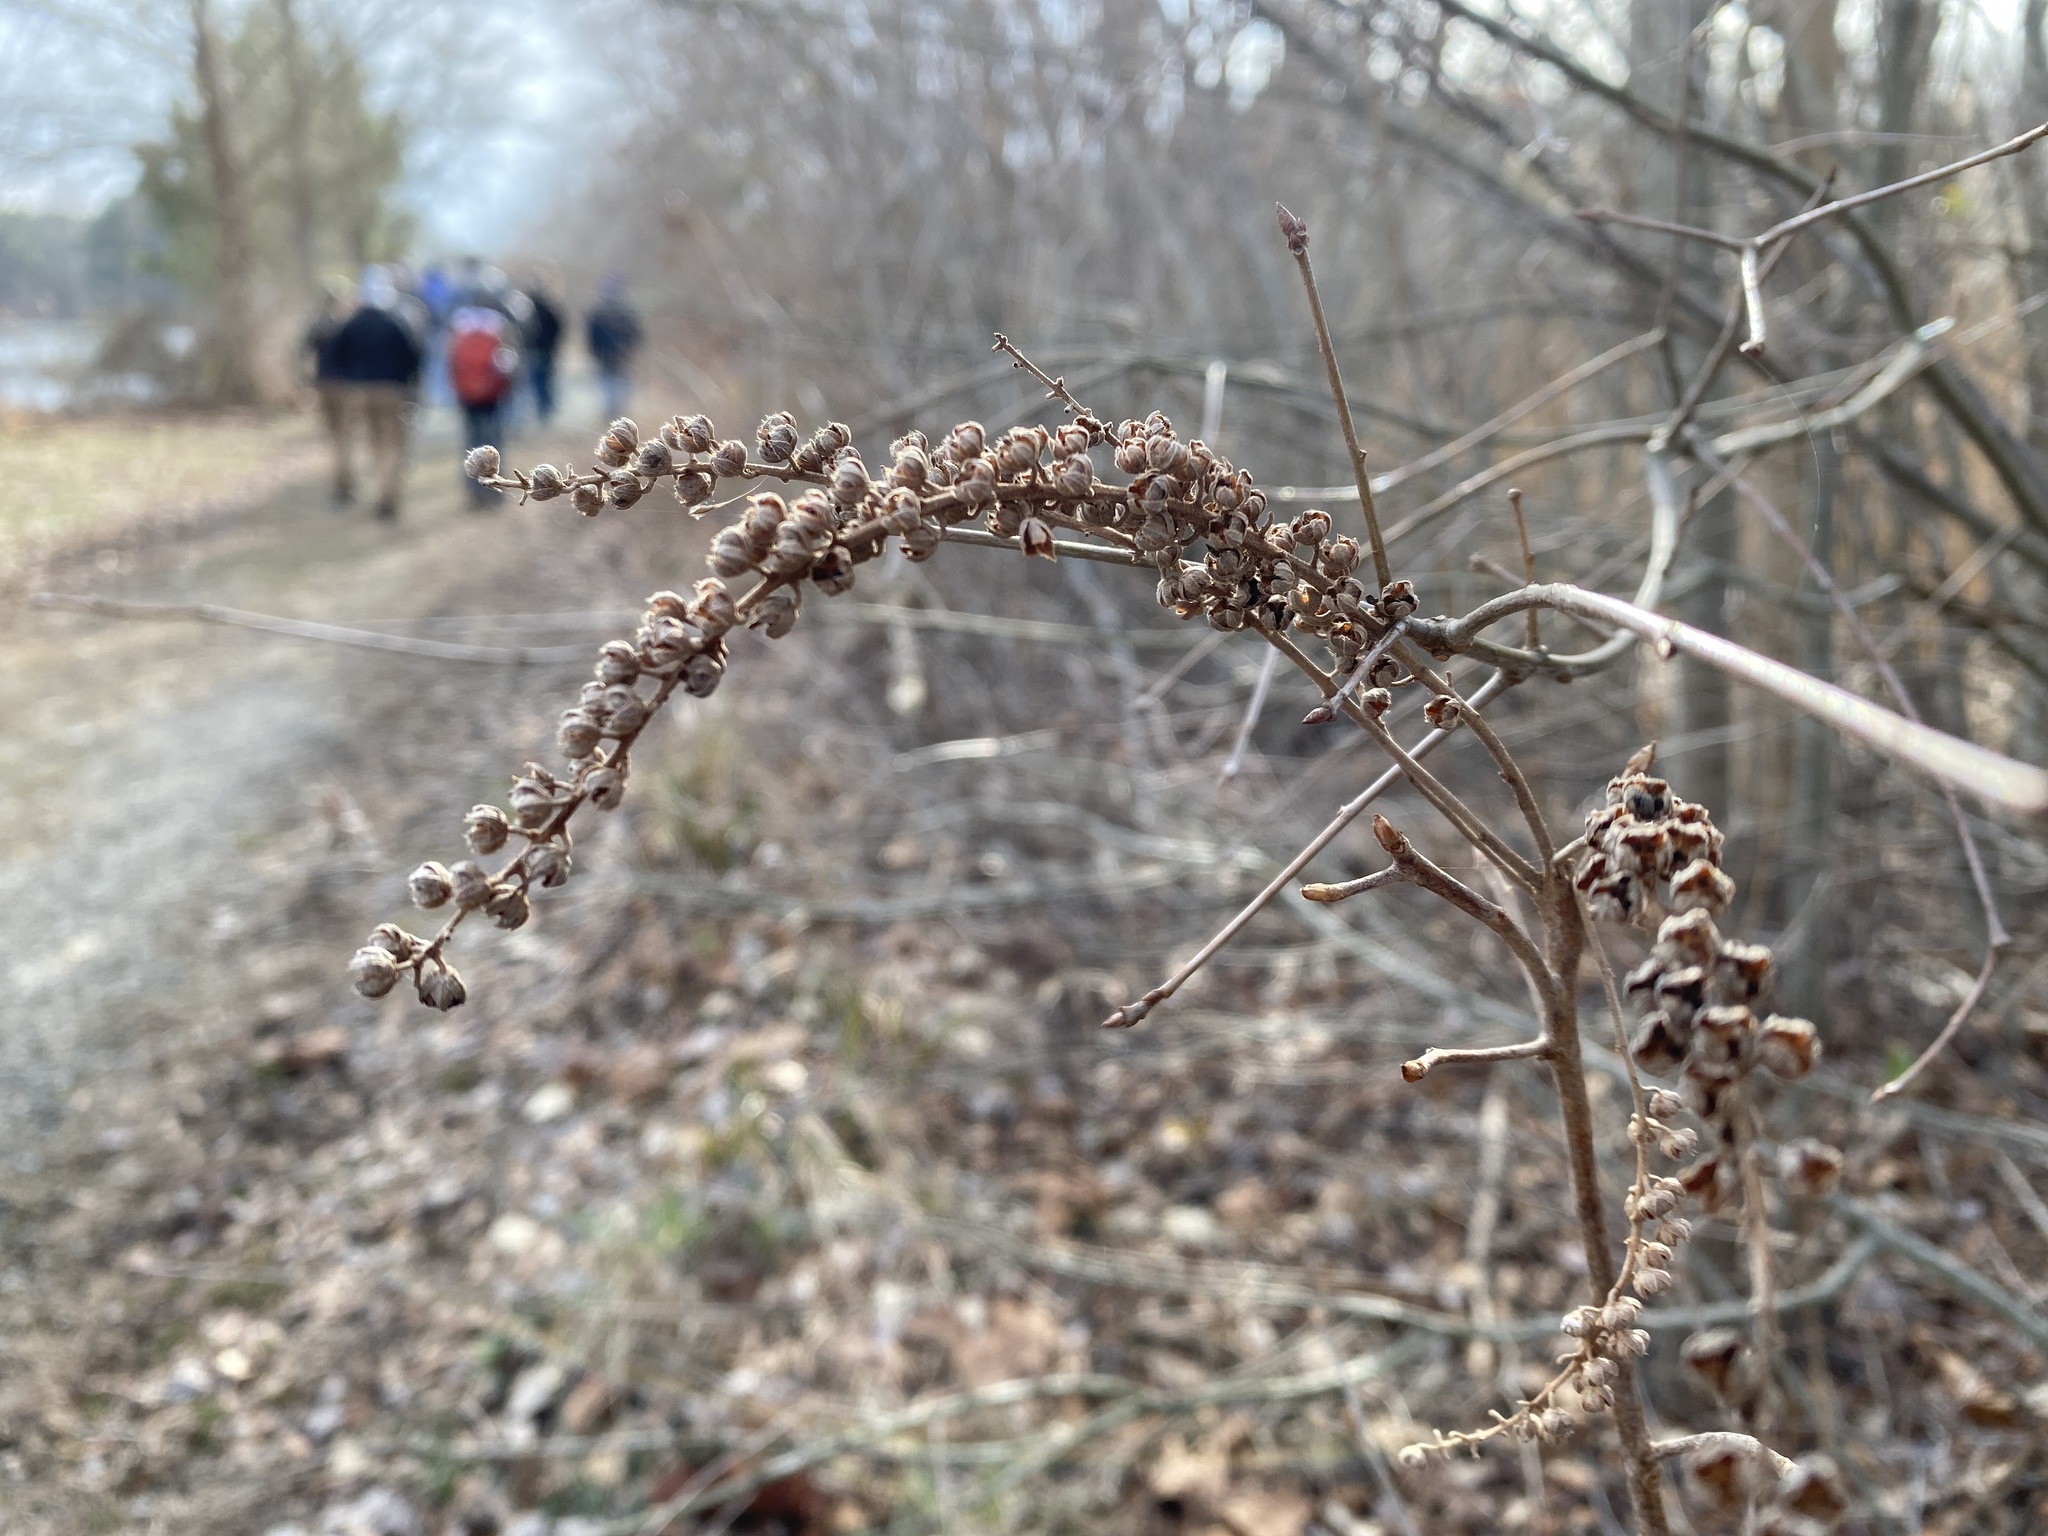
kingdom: Plantae
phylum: Tracheophyta
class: Magnoliopsida
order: Ericales
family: Clethraceae
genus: Clethra
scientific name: Clethra alnifolia
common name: Sweet pepperbush
